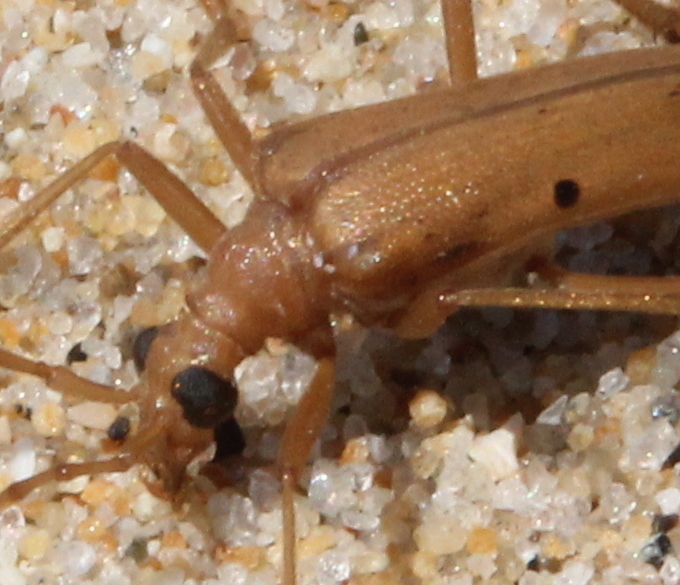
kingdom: Animalia
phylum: Arthropoda
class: Insecta
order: Coleoptera
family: Cerambycidae
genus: Centrodera
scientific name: Centrodera spurca
